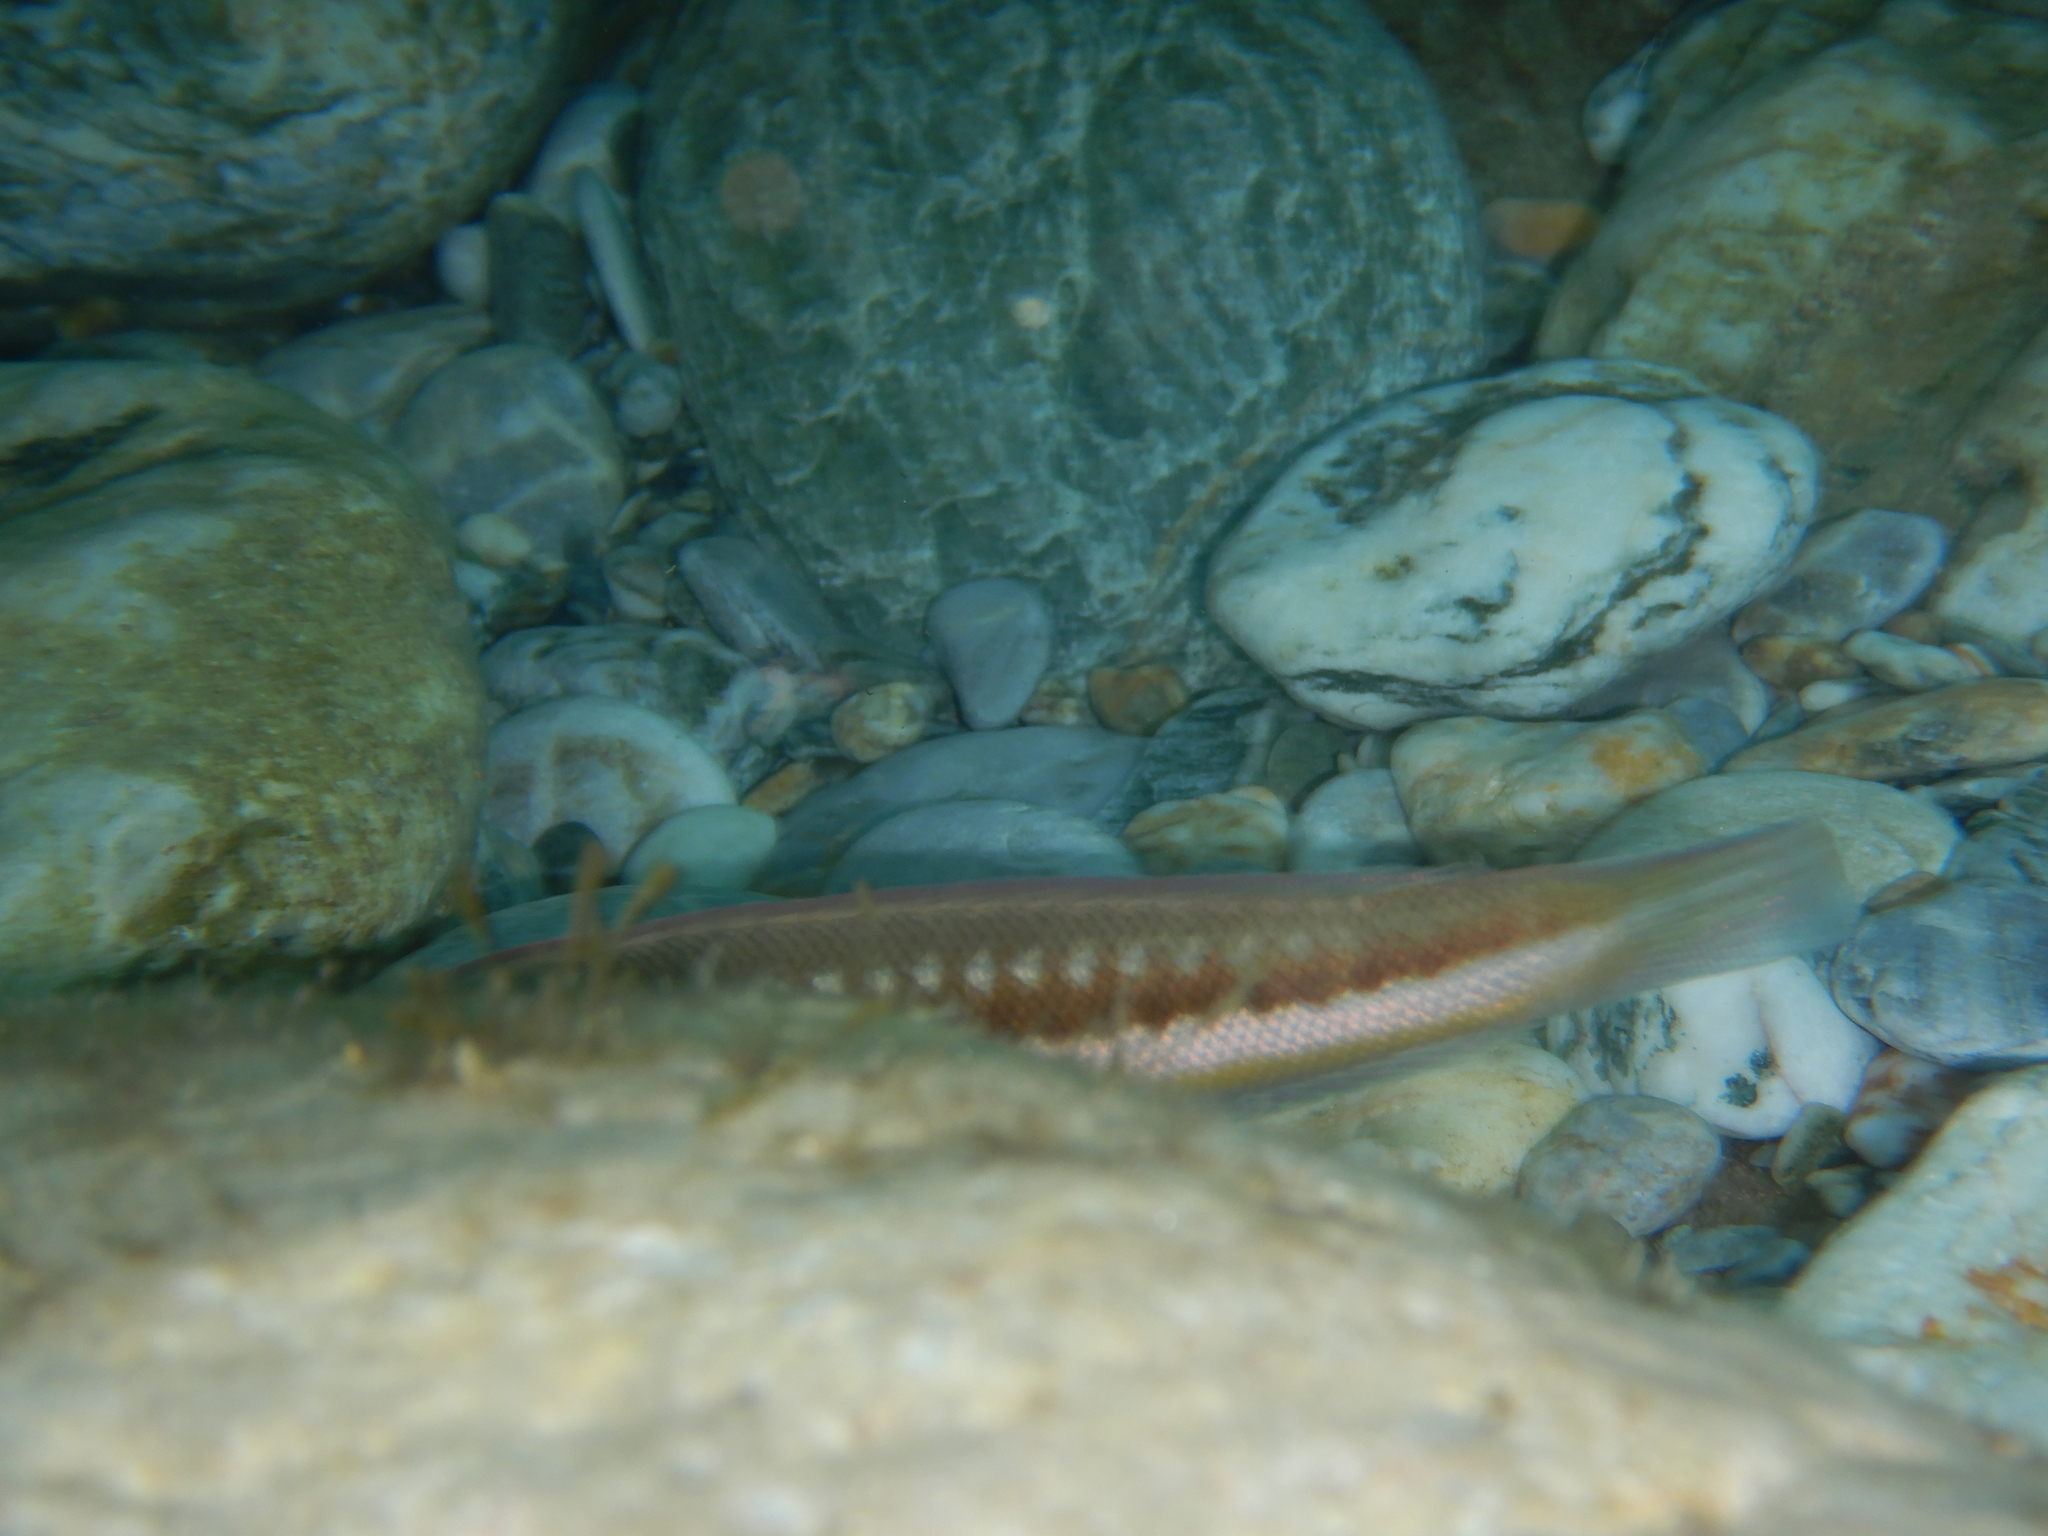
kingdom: Animalia
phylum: Chordata
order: Perciformes
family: Labridae
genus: Coris
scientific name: Coris julis
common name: Rainbow wrasse
